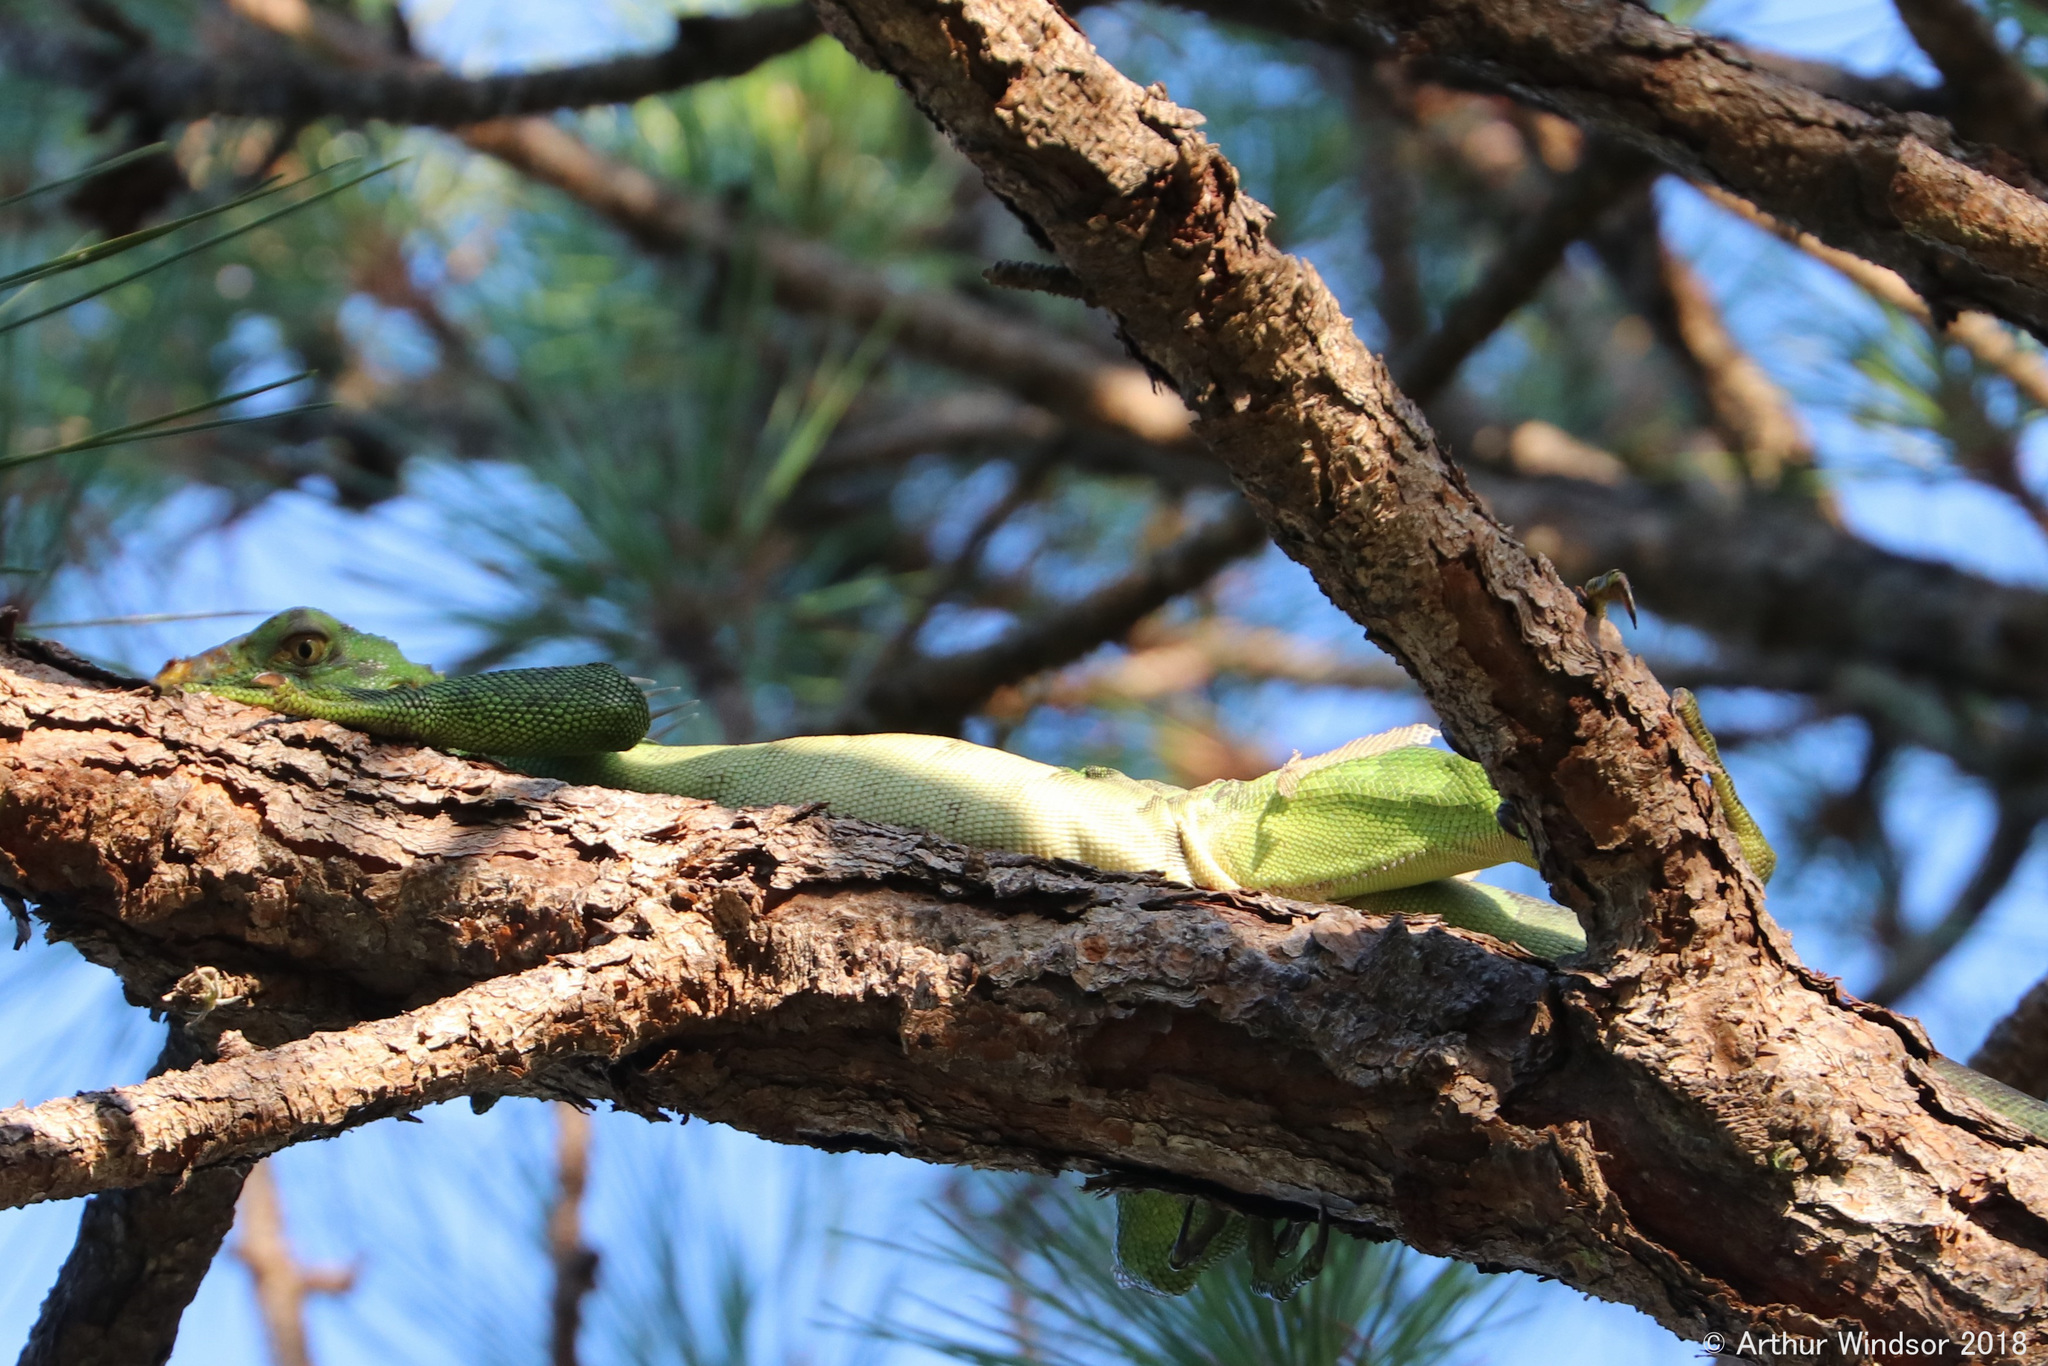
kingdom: Animalia
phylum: Chordata
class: Squamata
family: Iguanidae
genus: Iguana
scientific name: Iguana iguana
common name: Green iguana
